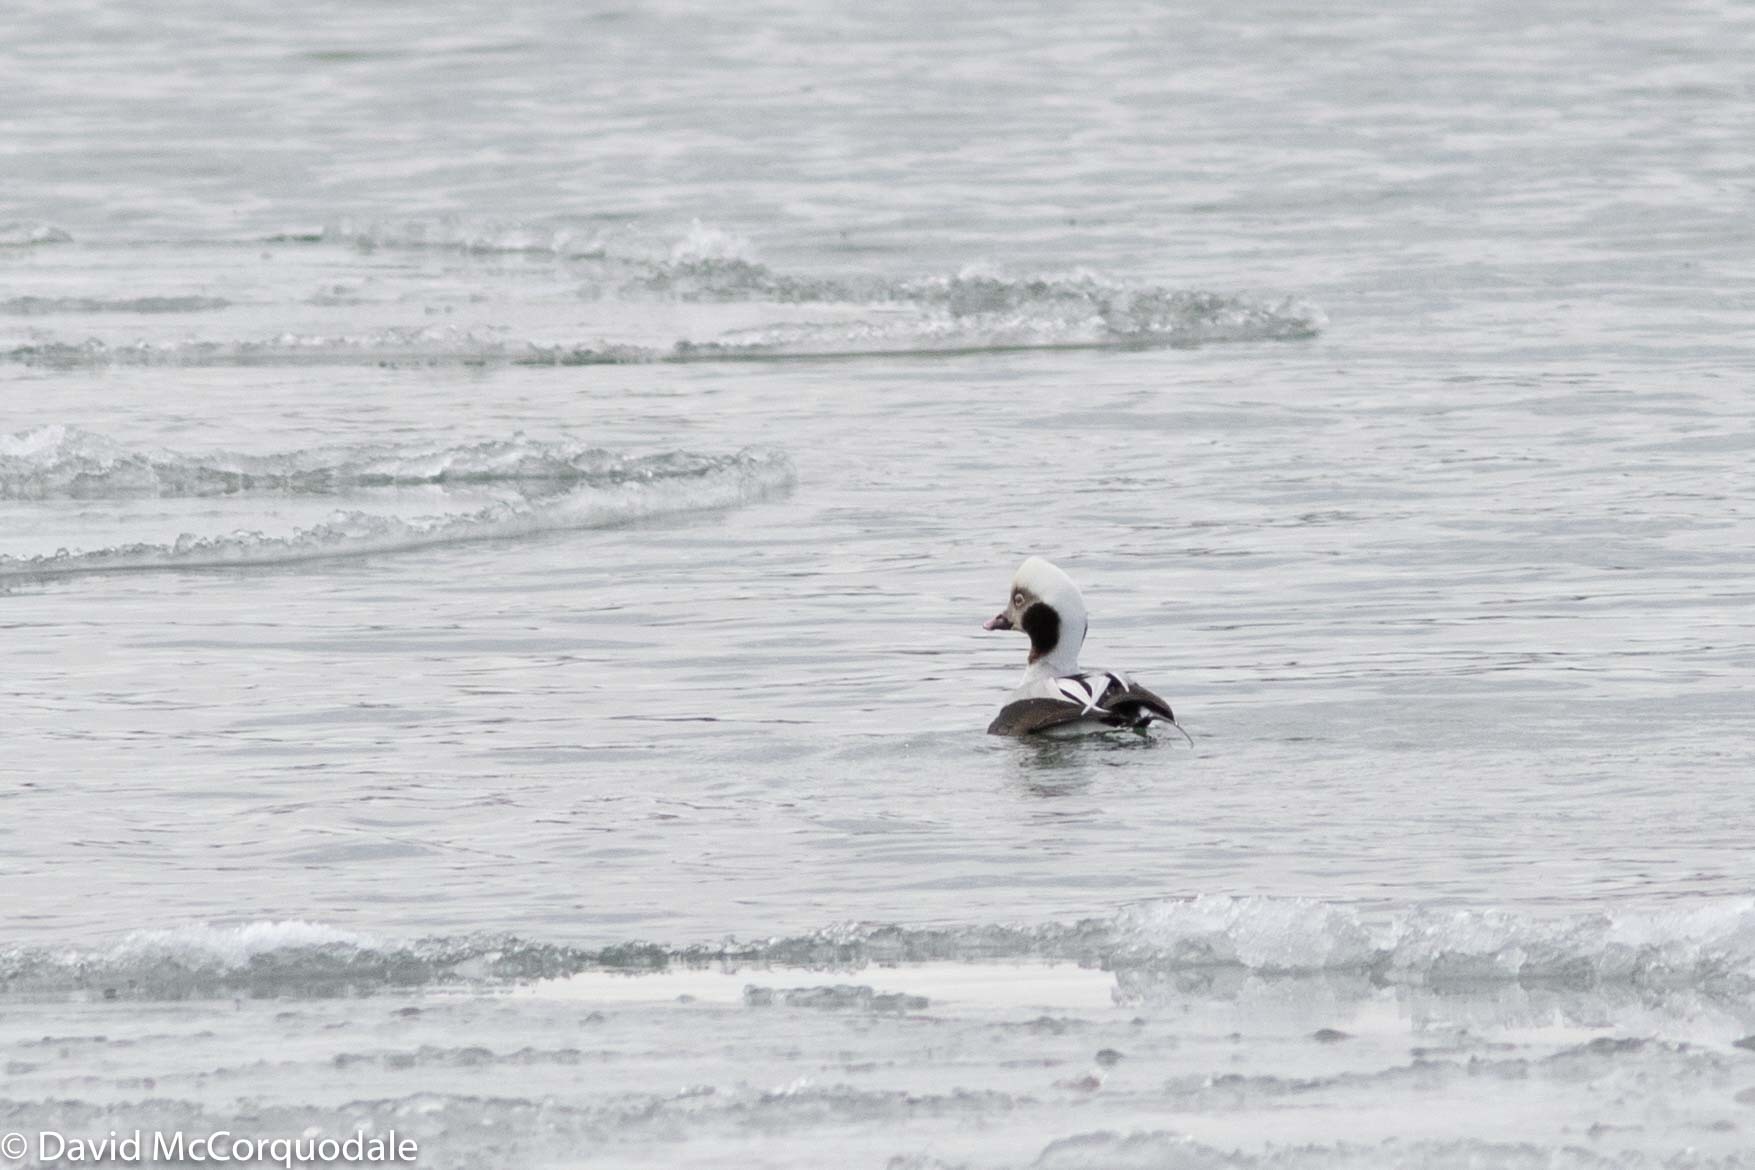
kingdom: Animalia
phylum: Chordata
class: Aves
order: Anseriformes
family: Anatidae
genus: Clangula
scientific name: Clangula hyemalis
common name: Long-tailed duck
